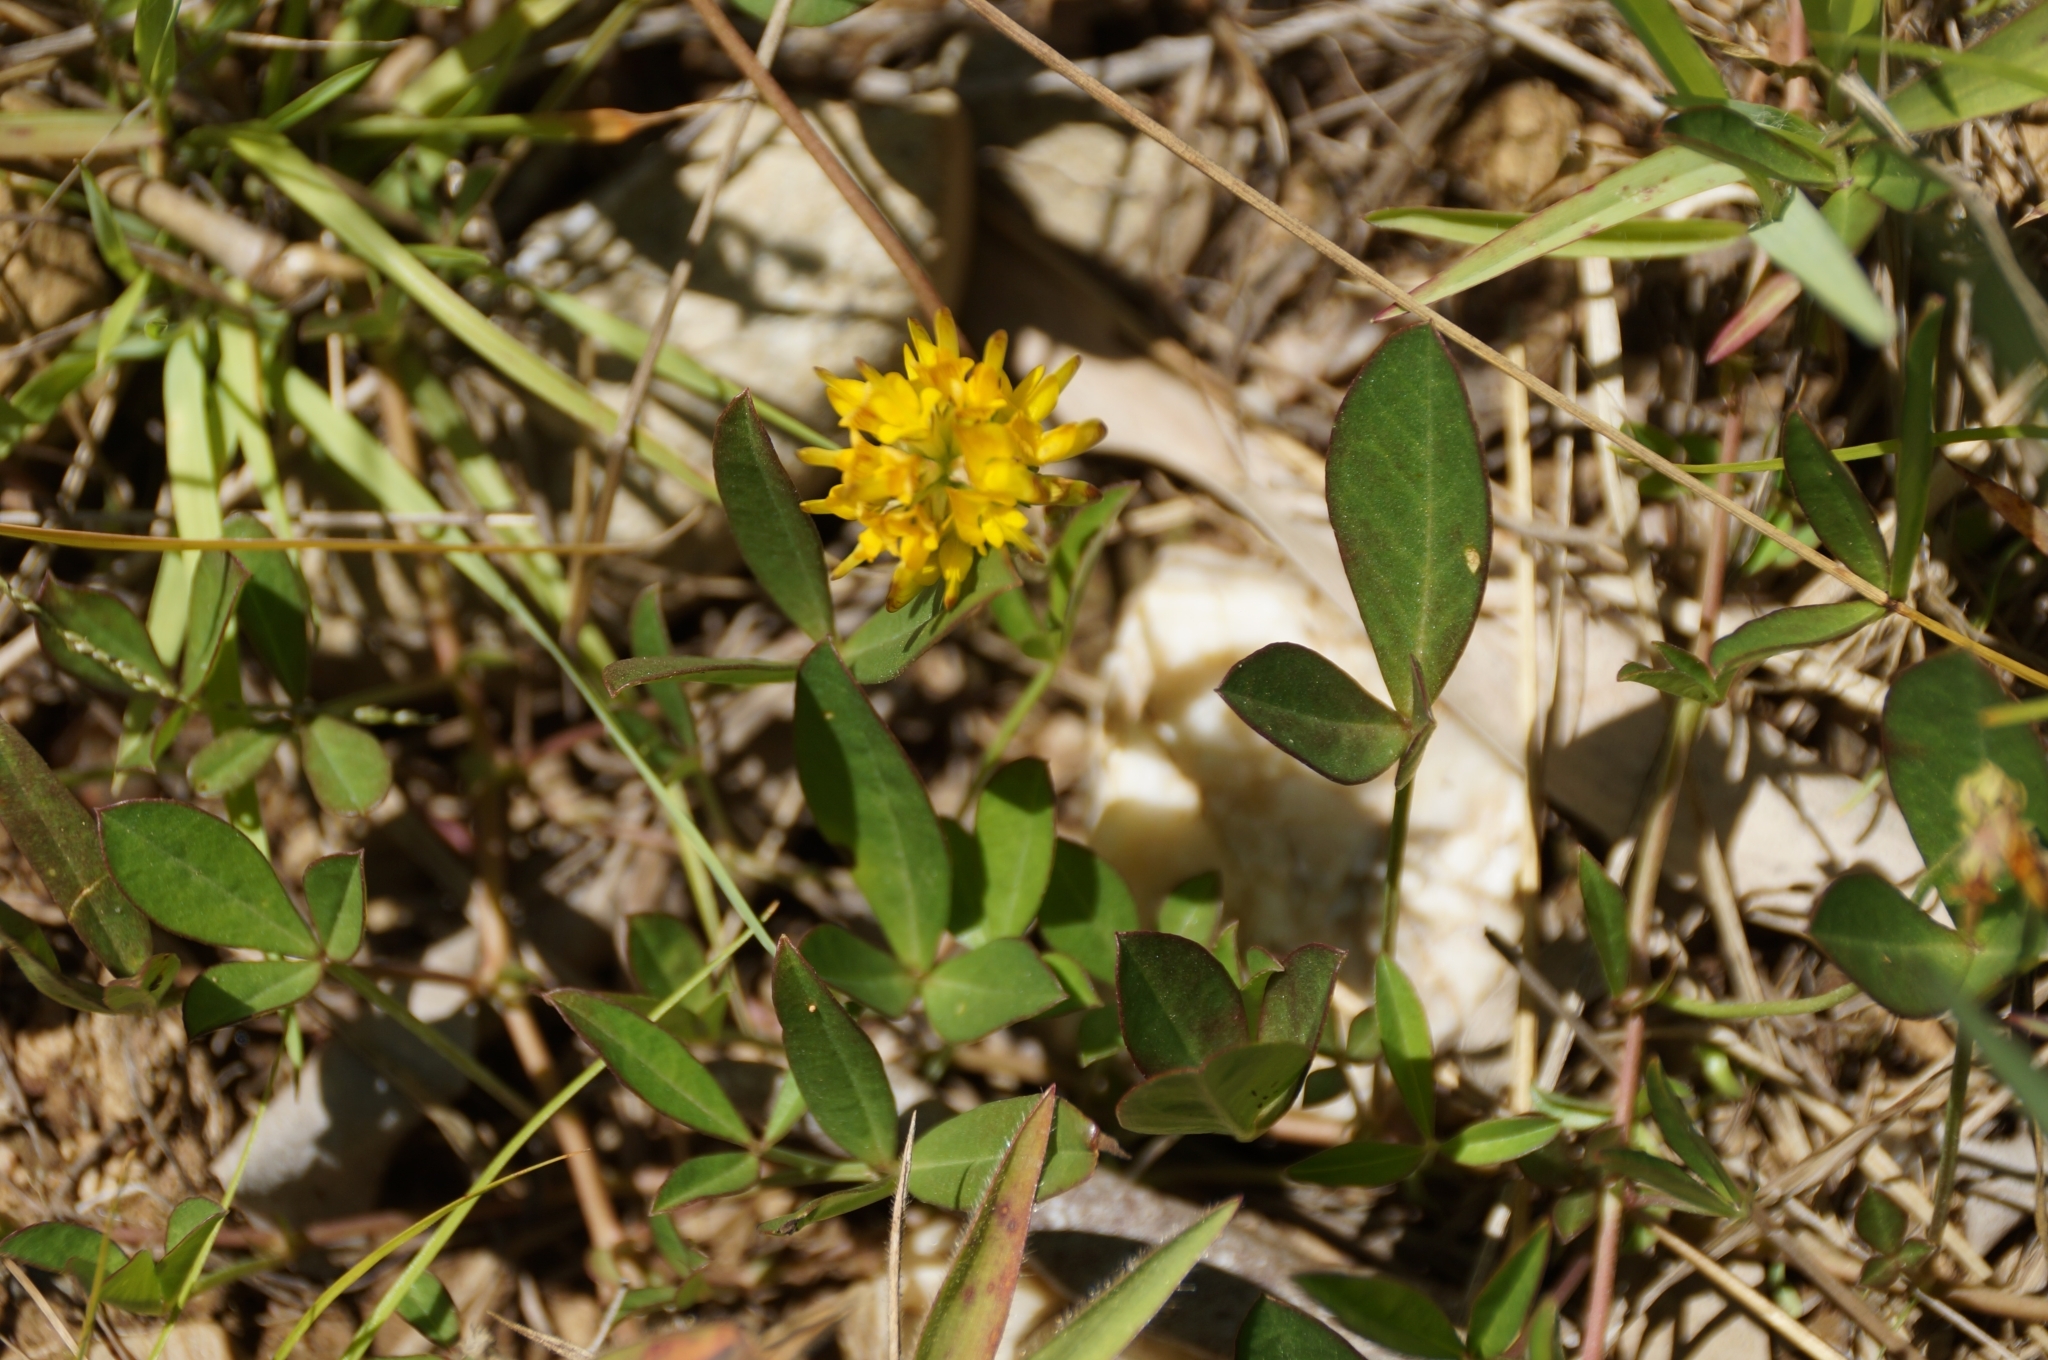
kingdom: Plantae
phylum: Tracheophyta
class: Magnoliopsida
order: Fabales
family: Fabaceae
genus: Listia
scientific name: Listia bainesii
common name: Lotononis
